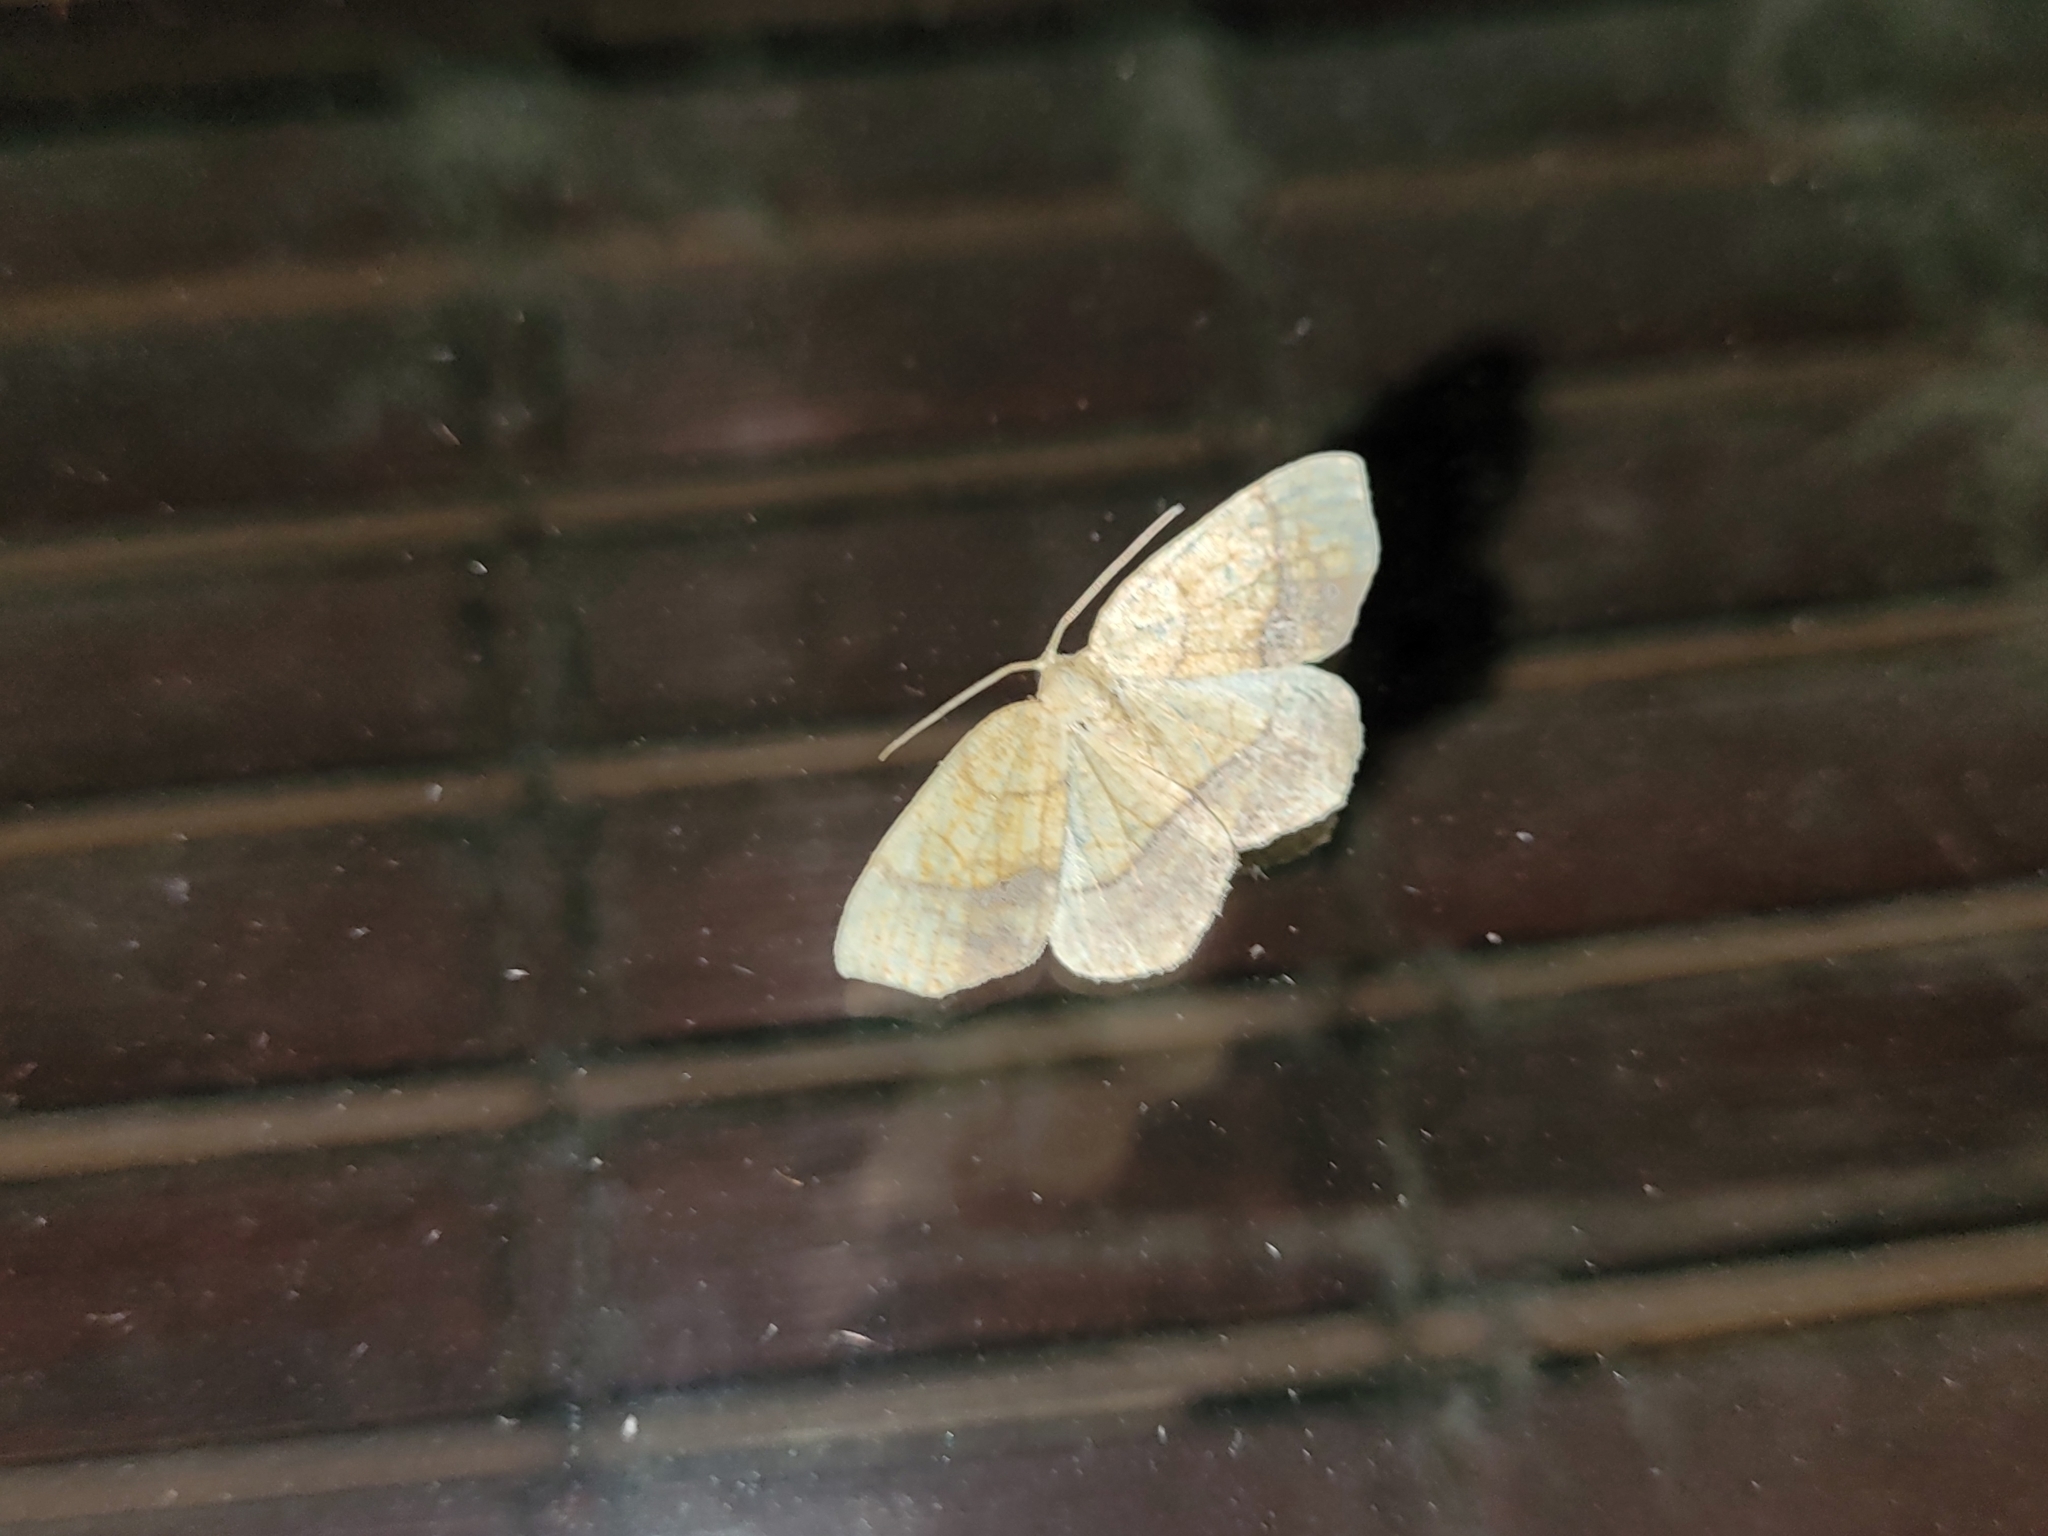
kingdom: Animalia
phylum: Arthropoda
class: Insecta
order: Lepidoptera
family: Geometridae
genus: Nematocampa
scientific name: Nematocampa resistaria
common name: Horned spanworm moth
